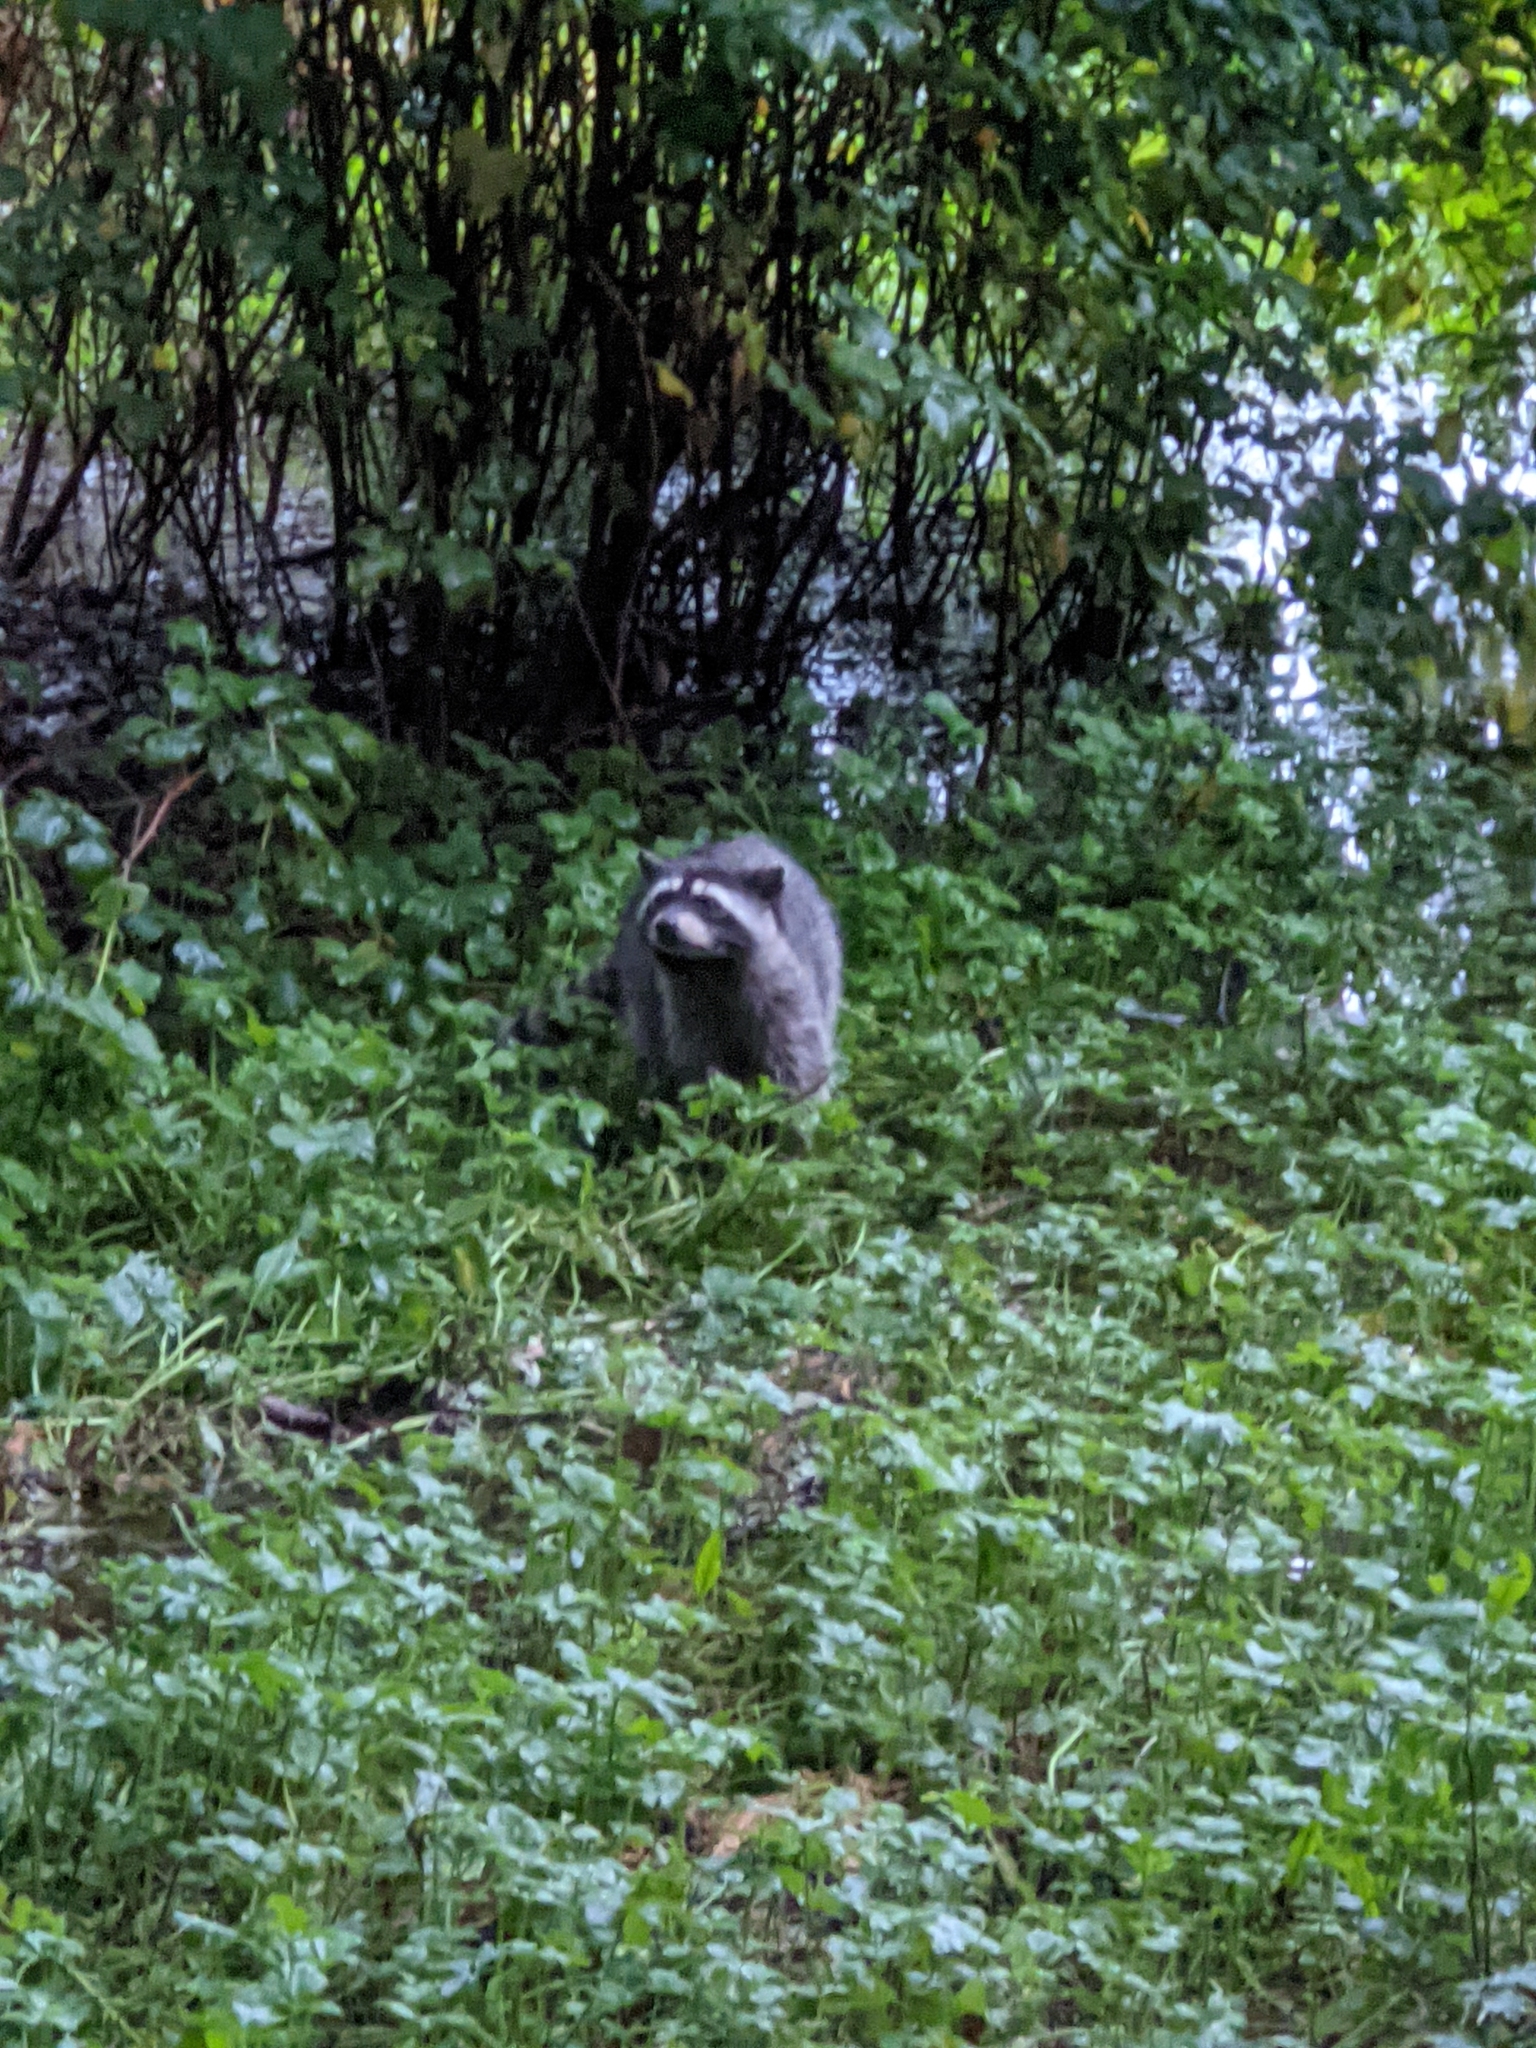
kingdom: Animalia
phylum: Chordata
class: Mammalia
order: Carnivora
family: Procyonidae
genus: Procyon
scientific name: Procyon lotor
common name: Raccoon
